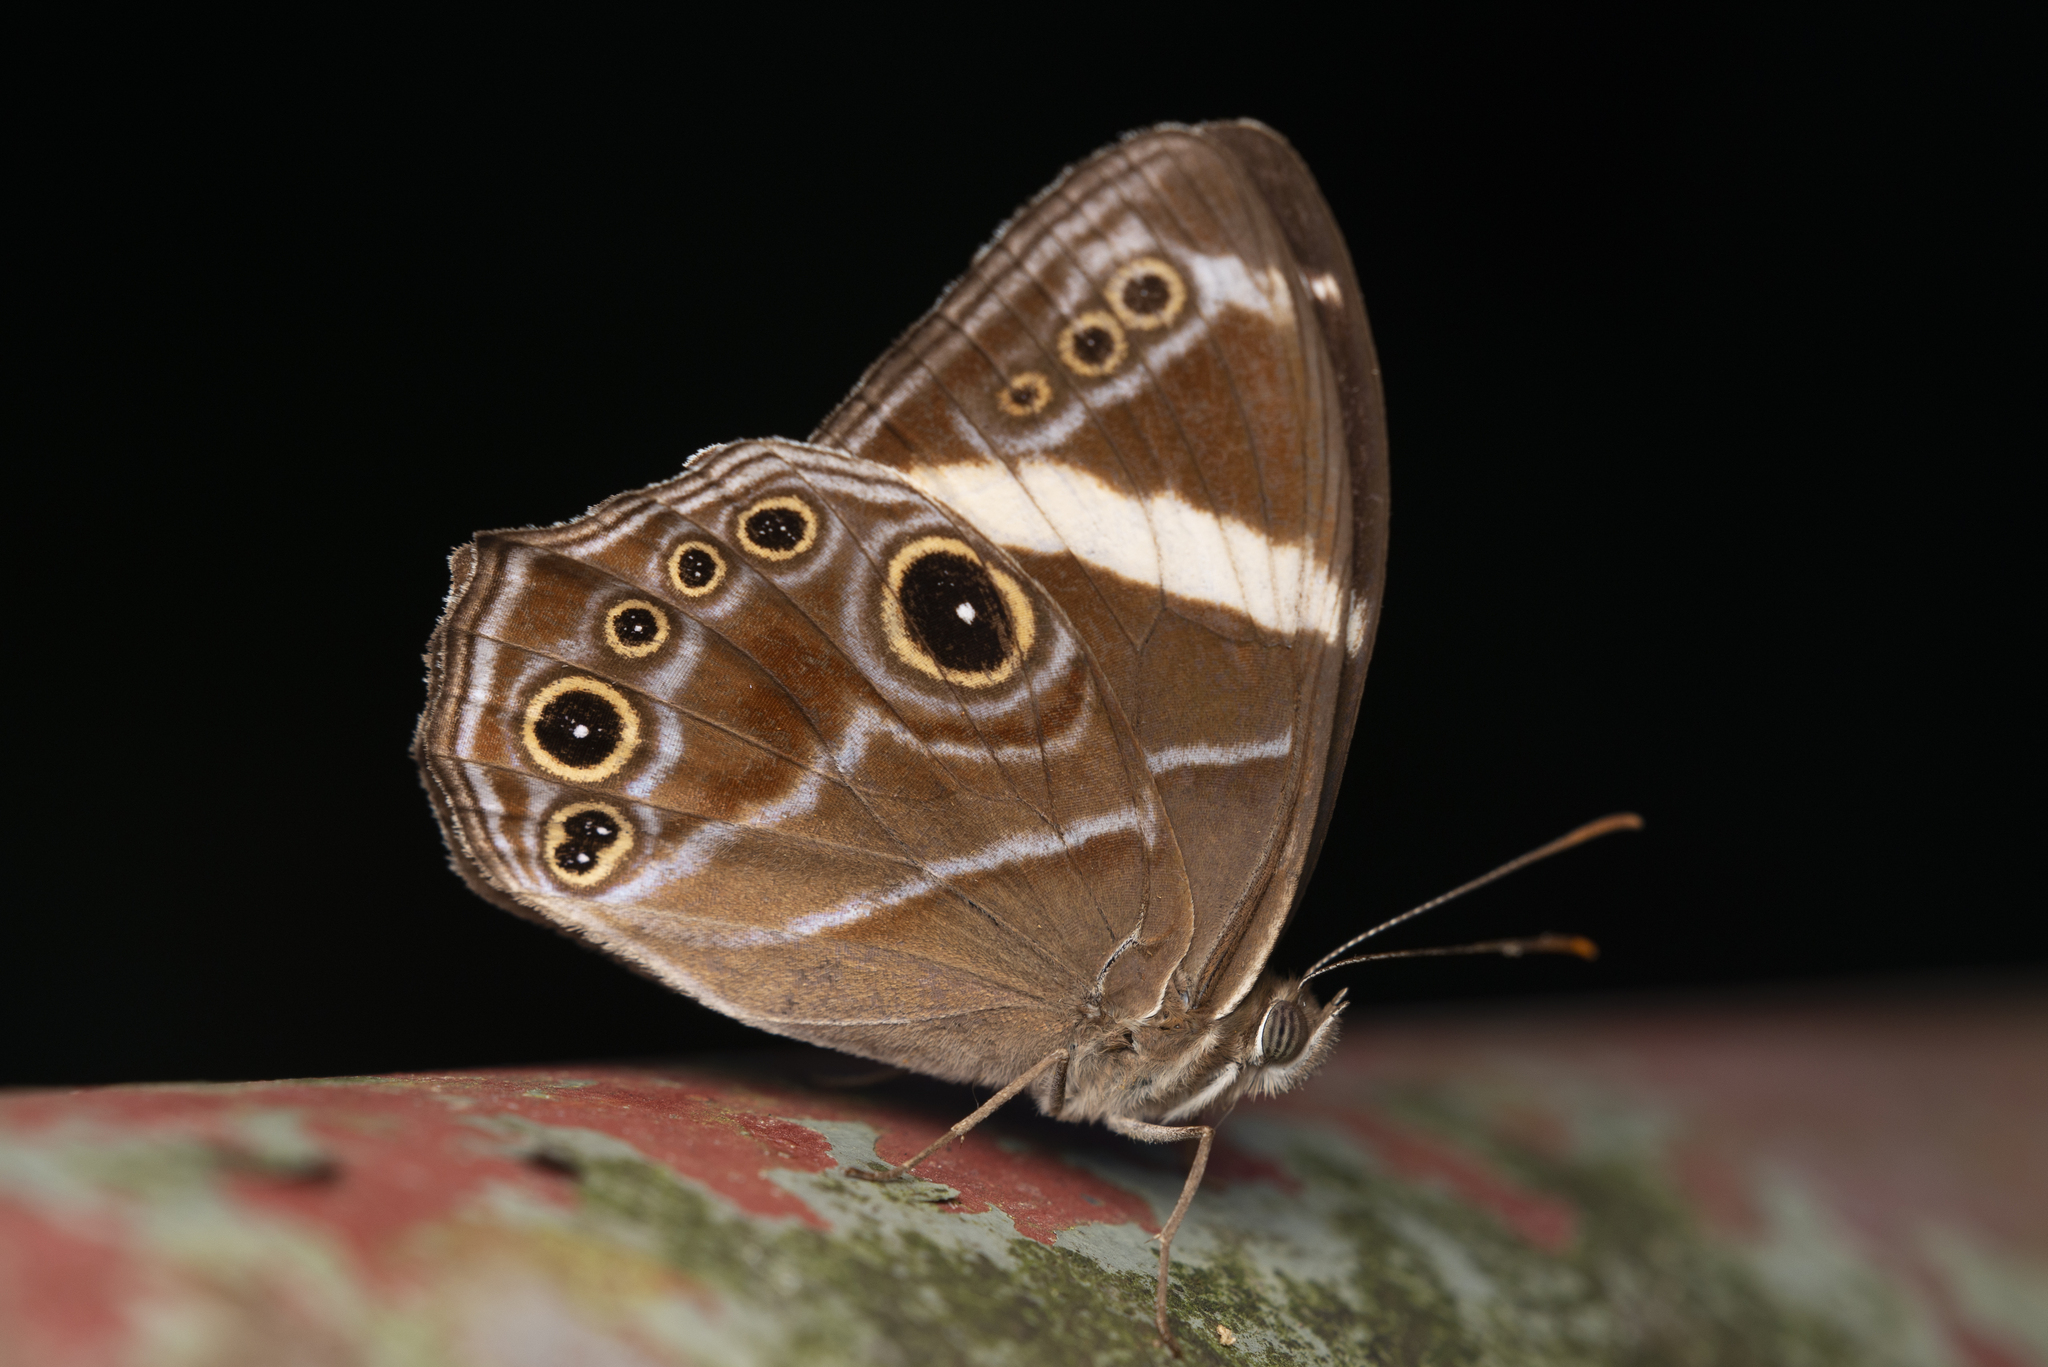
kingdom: Animalia
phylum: Arthropoda
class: Insecta
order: Lepidoptera
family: Nymphalidae
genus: Lethe
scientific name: Lethe confusa
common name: Banded treebrown
